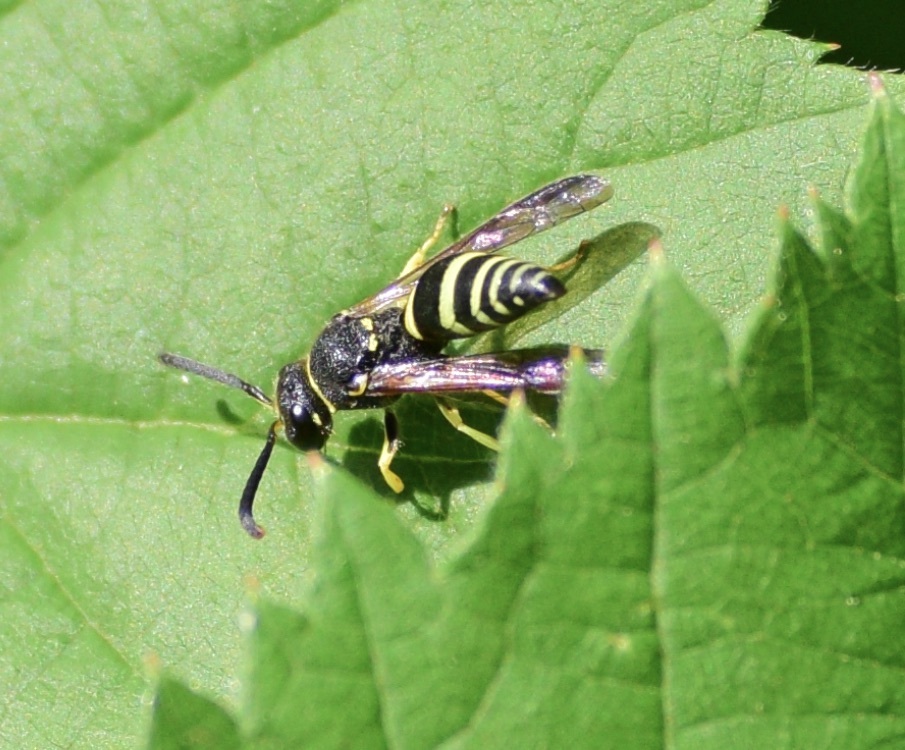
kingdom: Animalia
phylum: Arthropoda
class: Insecta
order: Hymenoptera
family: Vespidae
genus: Ancistrocerus
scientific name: Ancistrocerus
